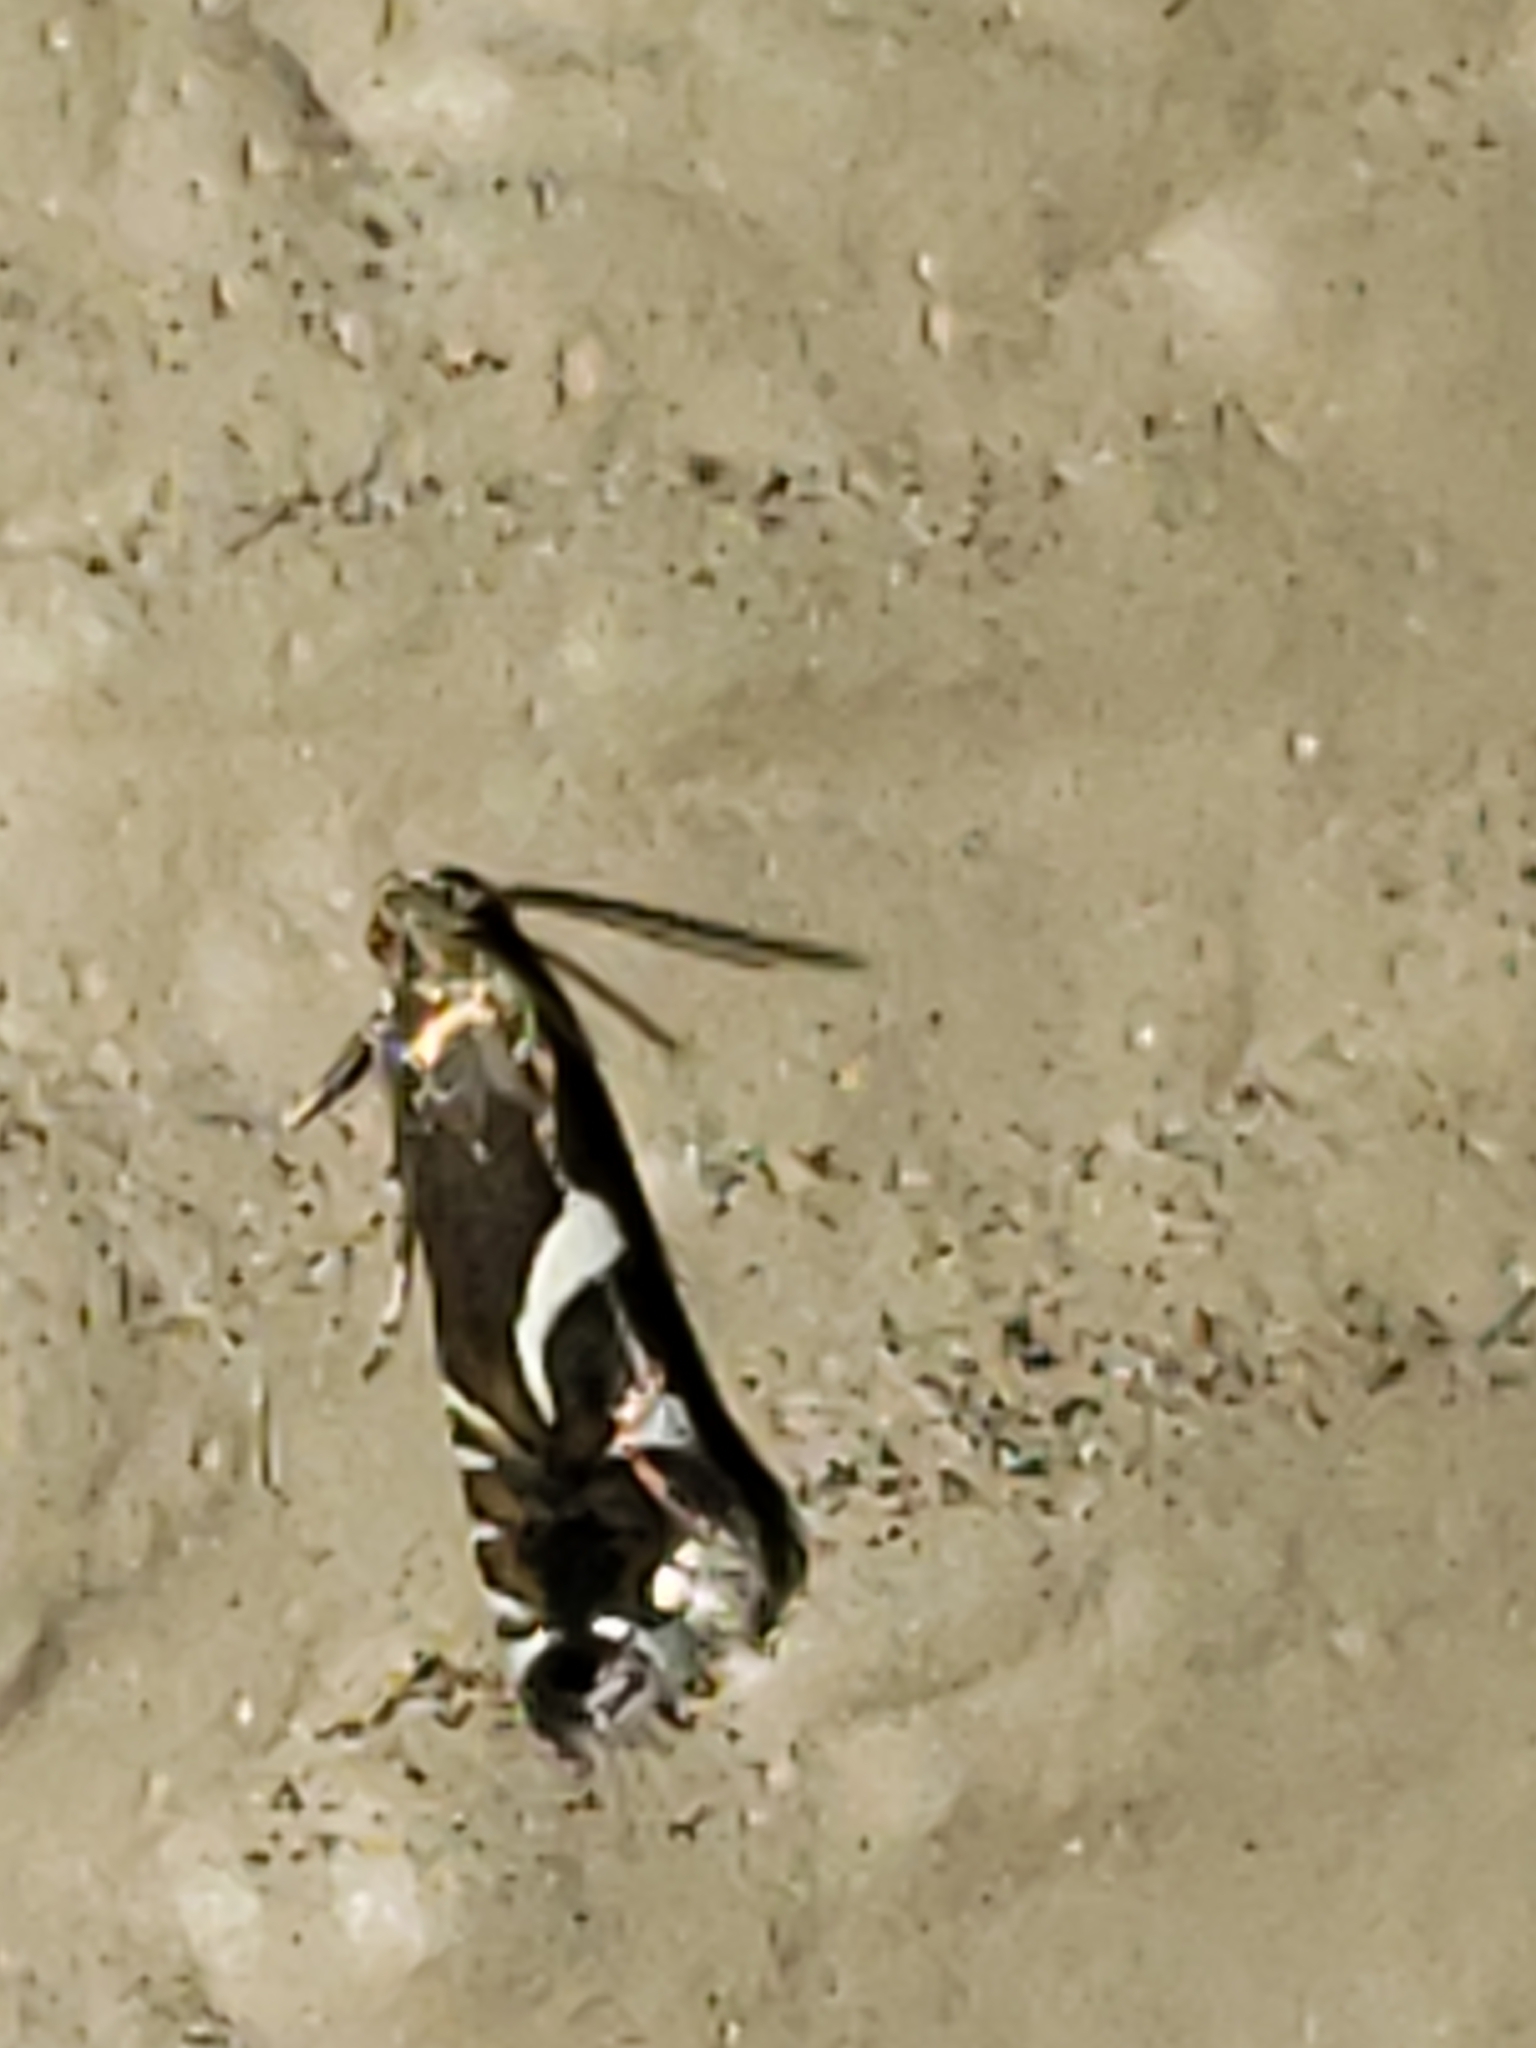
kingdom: Animalia
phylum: Arthropoda
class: Insecta
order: Lepidoptera
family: Glyphipterigidae
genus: Glyphipterix
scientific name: Glyphipterix Diploschizia impigritella
